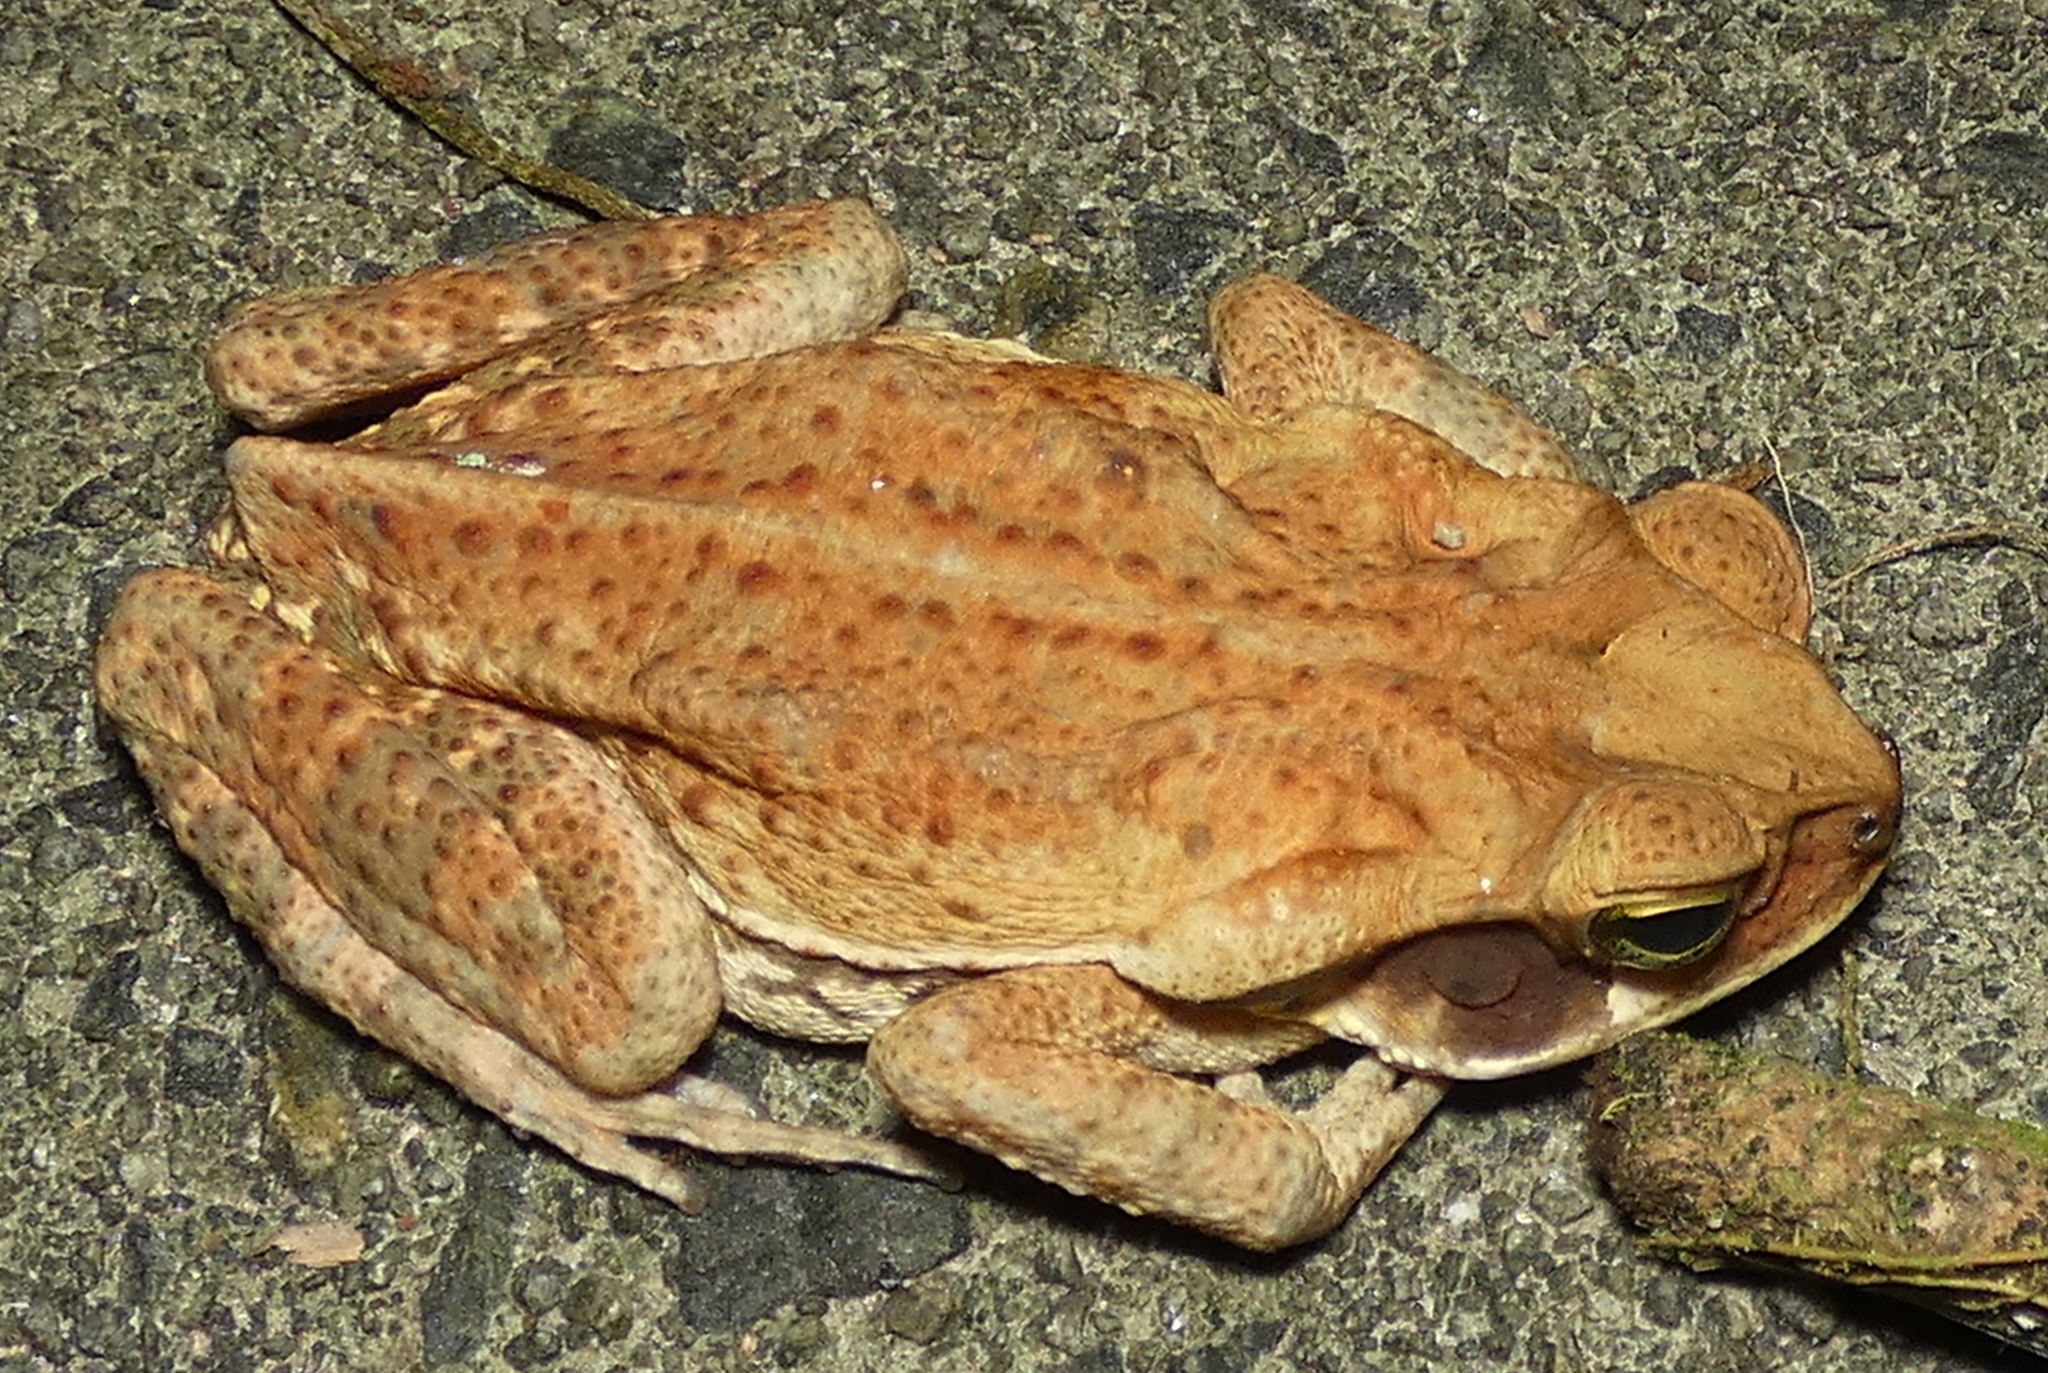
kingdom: Animalia
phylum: Chordata
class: Amphibia
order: Anura
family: Bufonidae
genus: Rhinella
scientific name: Rhinella crucifer
